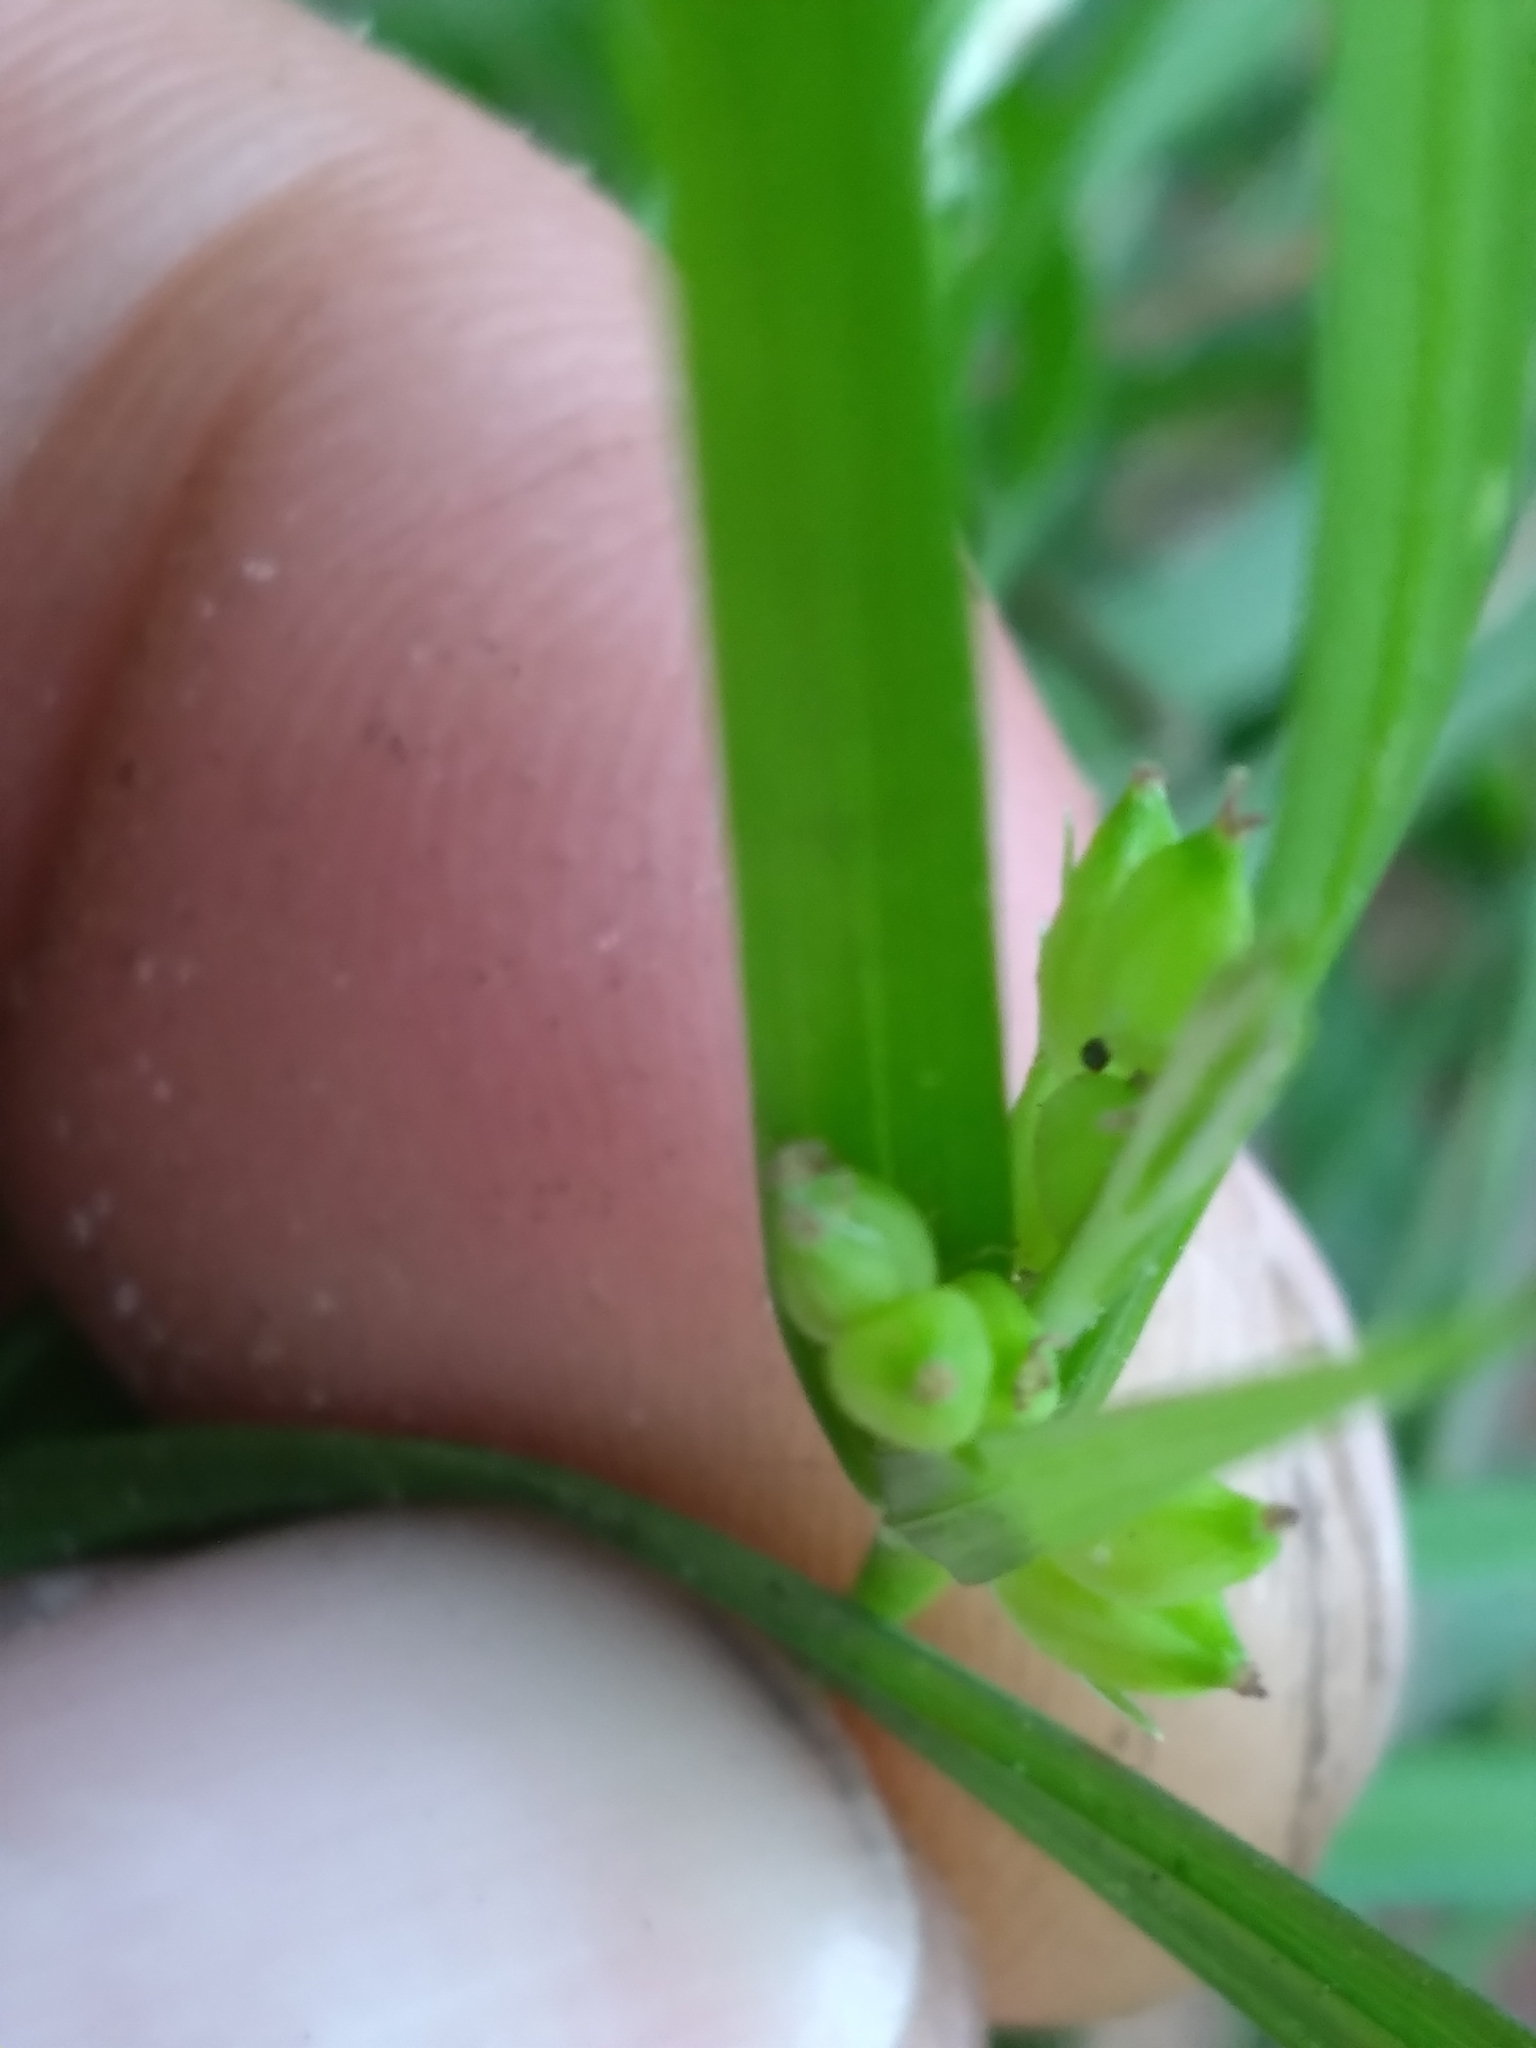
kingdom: Plantae
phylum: Tracheophyta
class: Liliopsida
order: Poales
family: Cyperaceae
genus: Carex
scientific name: Carex paeninsulae
